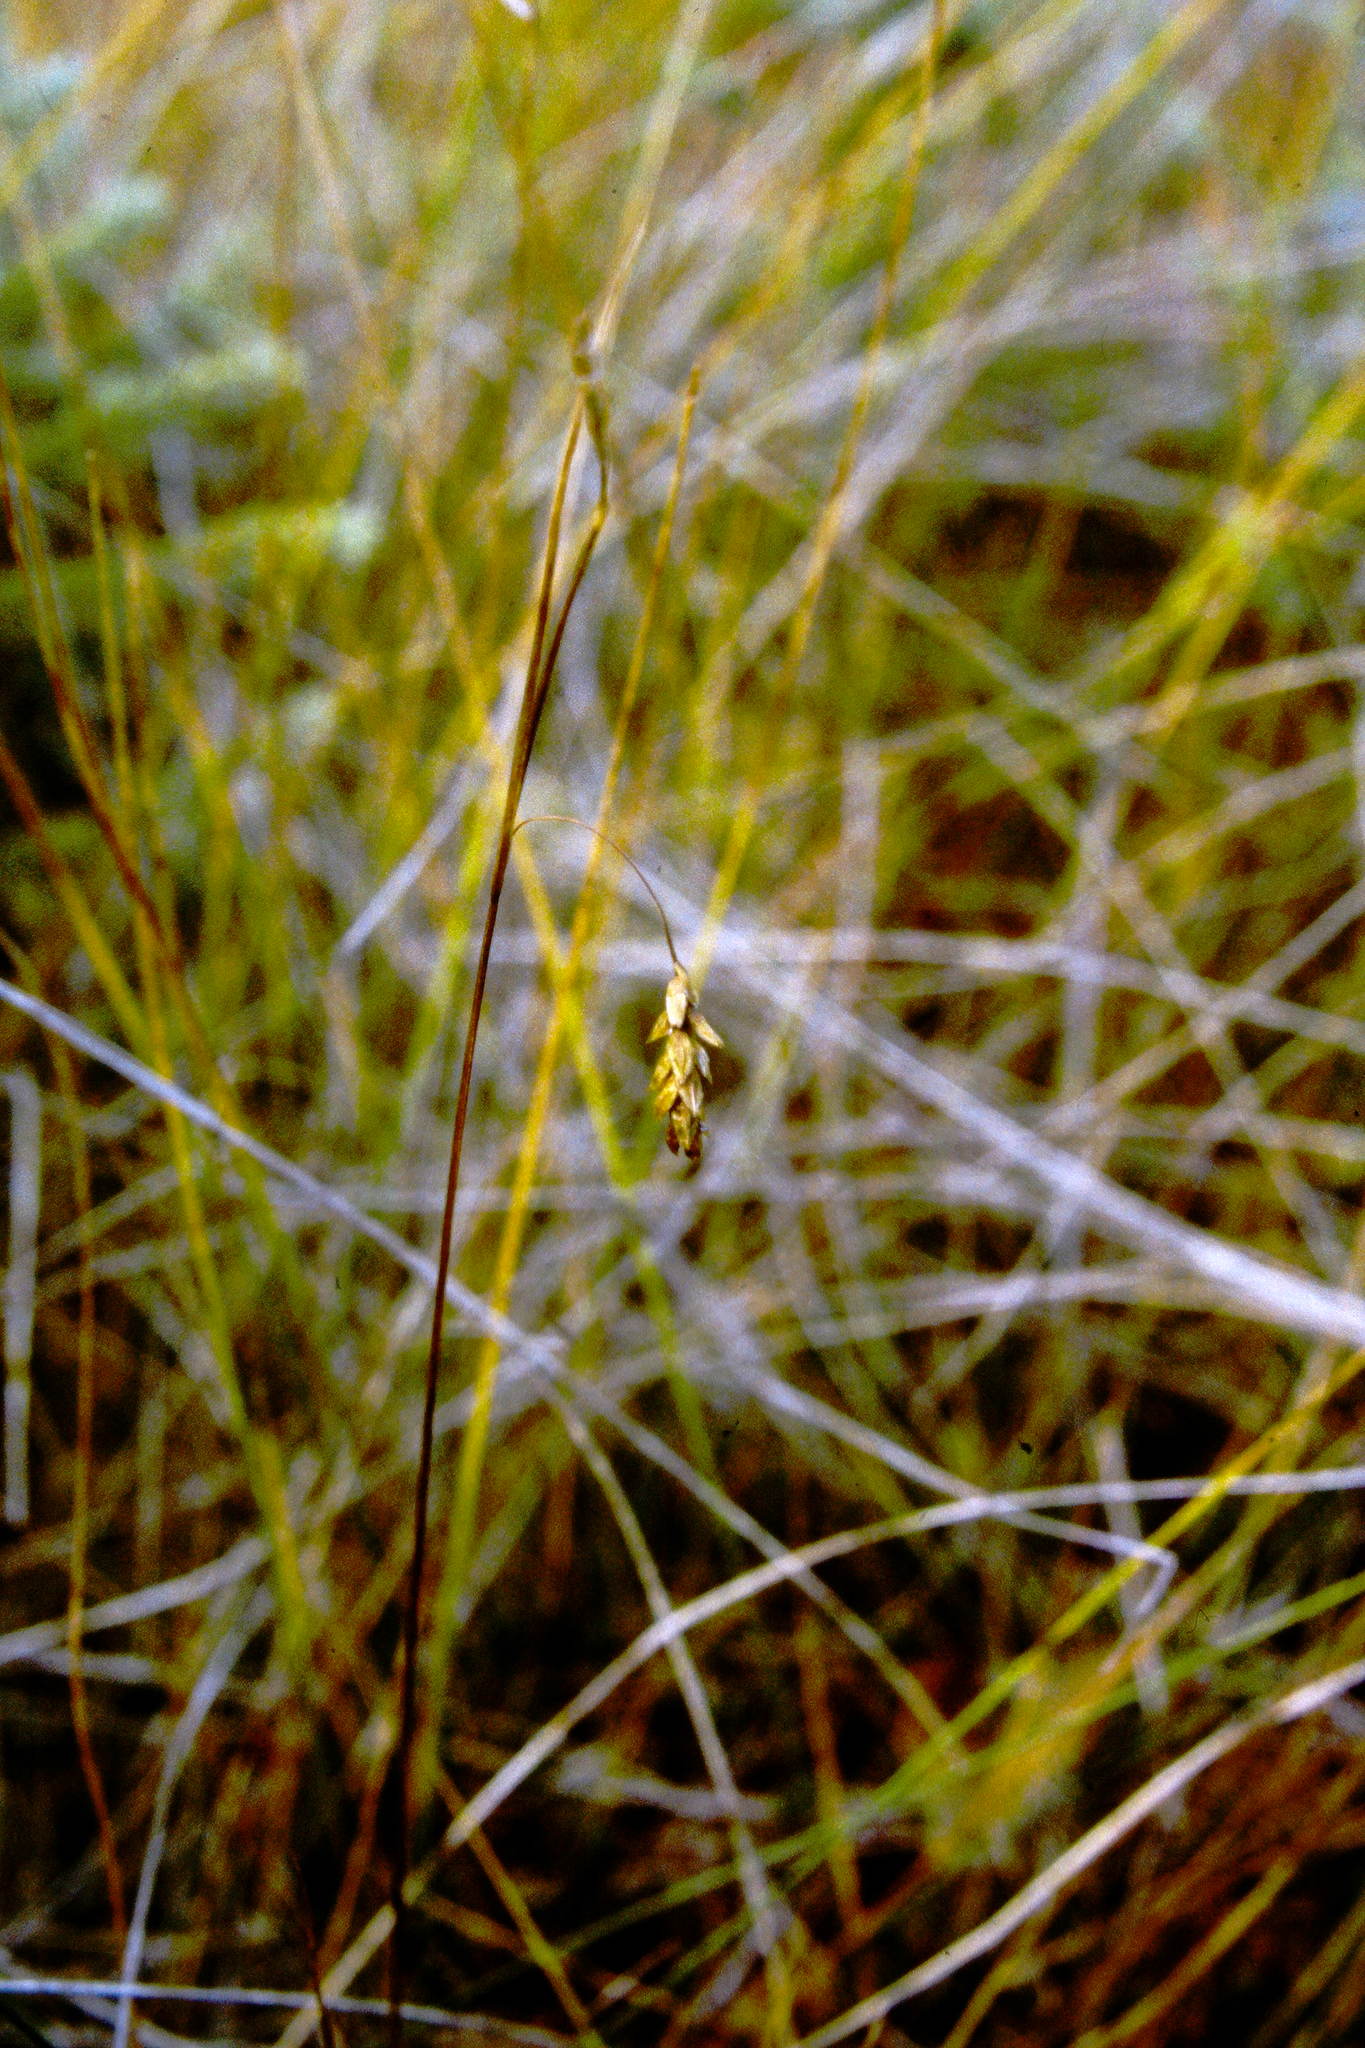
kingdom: Plantae
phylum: Tracheophyta
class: Liliopsida
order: Poales
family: Cyperaceae
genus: Carex
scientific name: Carex limosa
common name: Bog sedge
